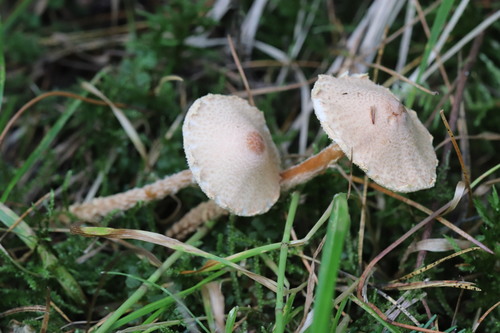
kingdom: Fungi
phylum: Basidiomycota
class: Agaricomycetes
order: Agaricales
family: Agaricaceae
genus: Lepiota
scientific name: Lepiota clypeolaria
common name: Shield dapperling
